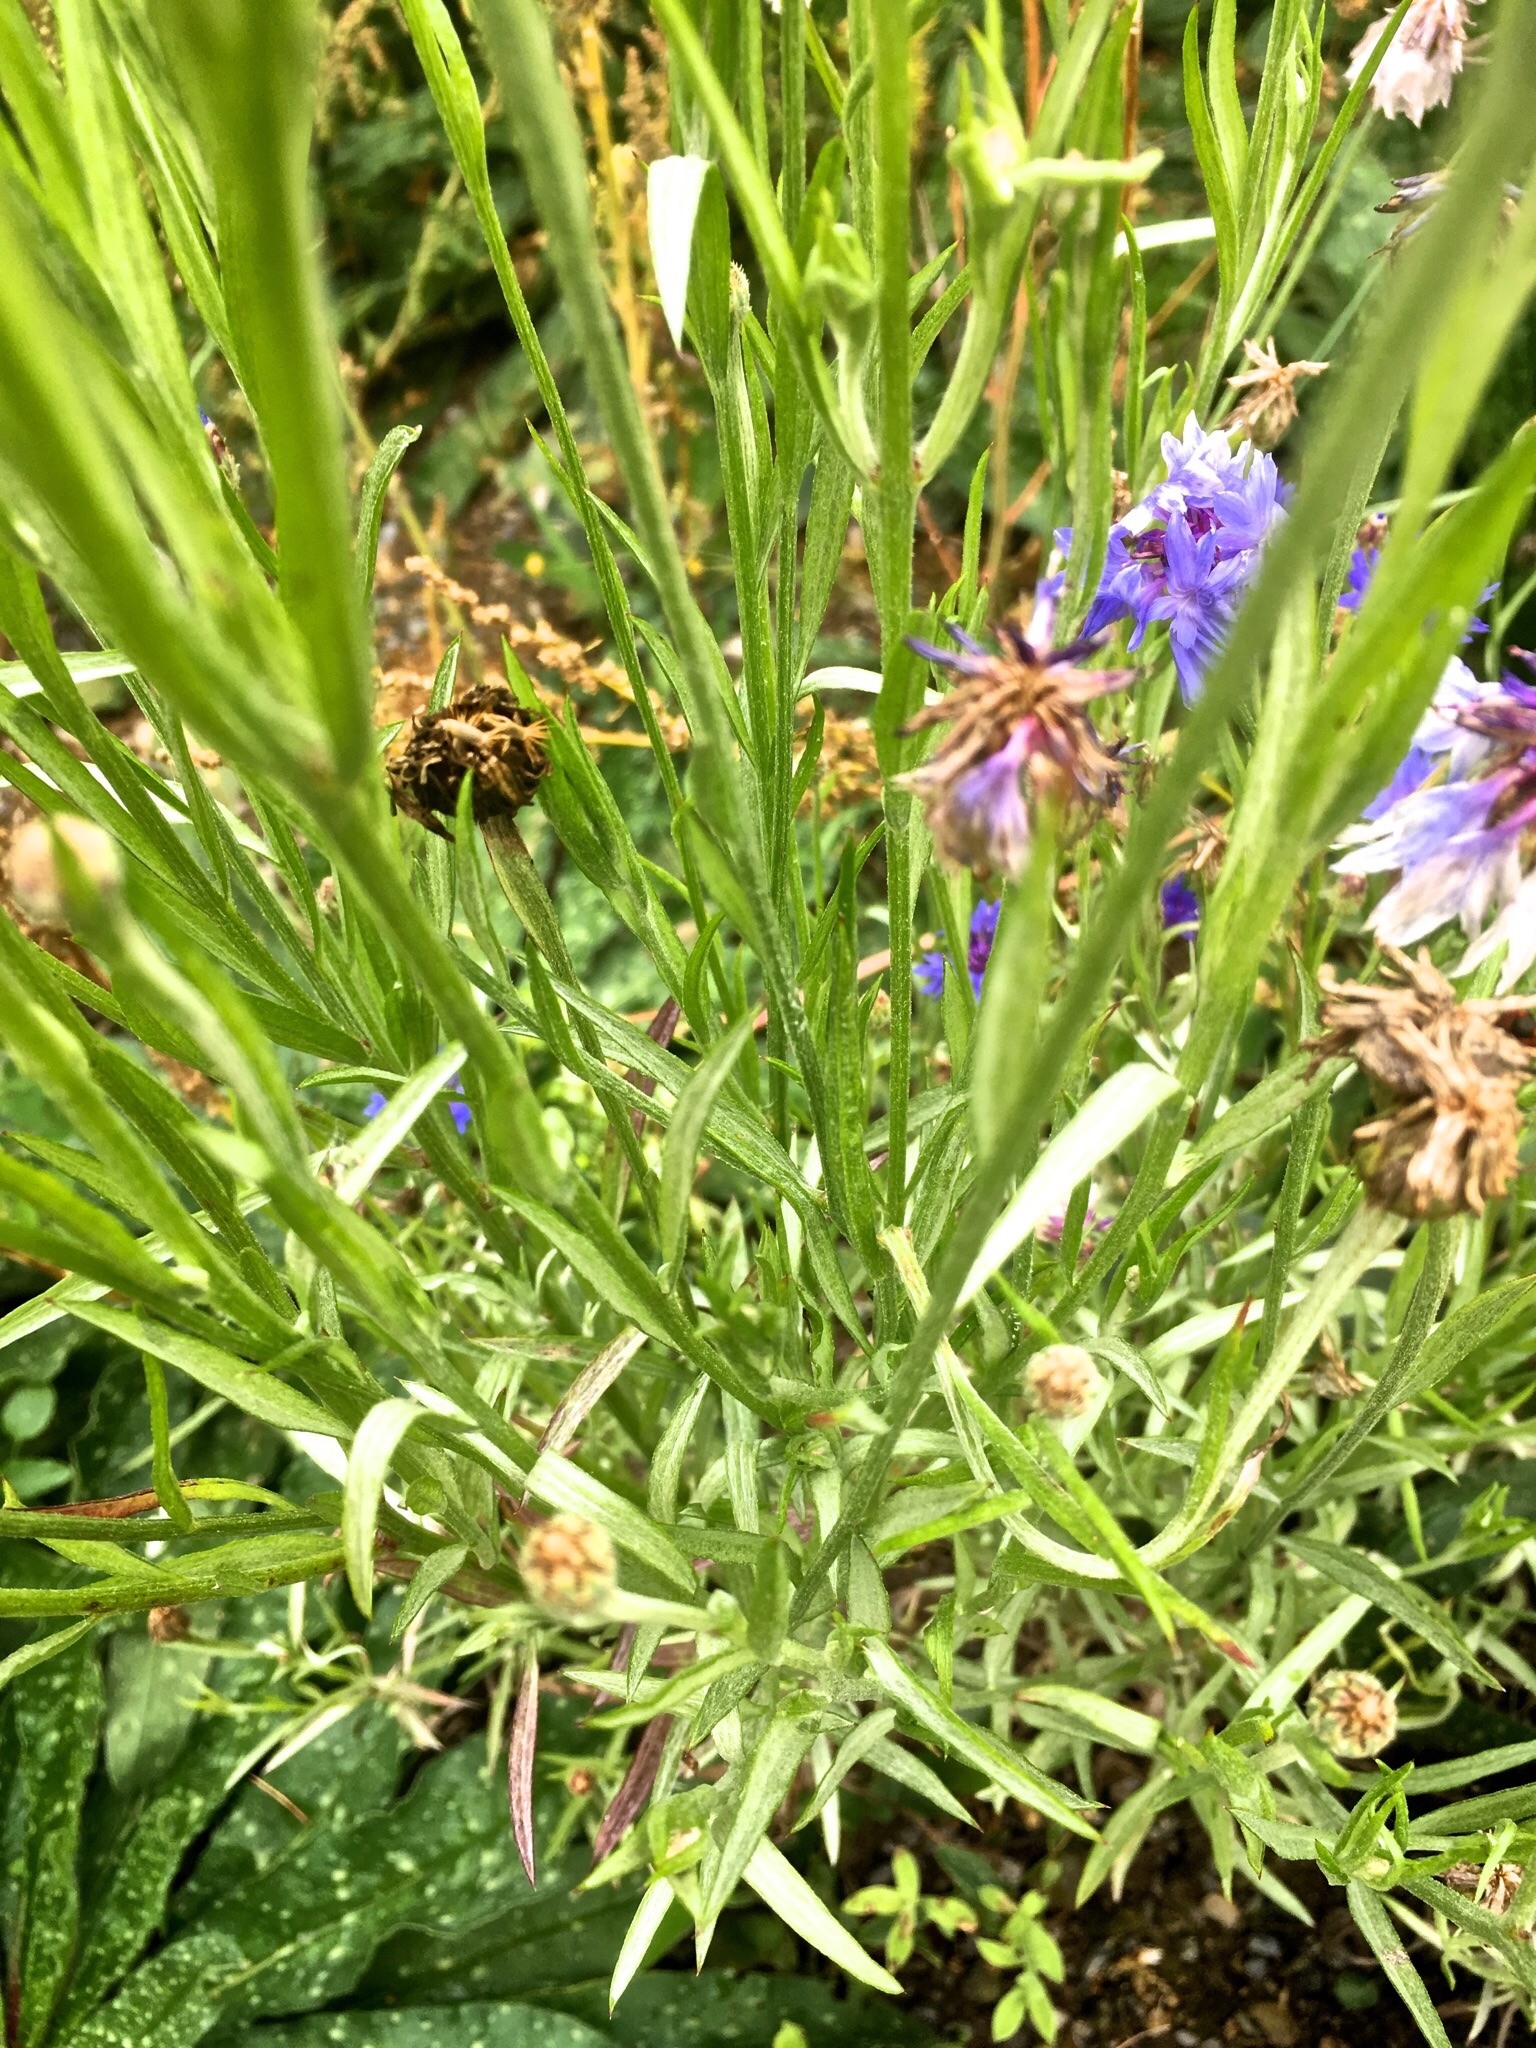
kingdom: Plantae
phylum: Tracheophyta
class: Magnoliopsida
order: Asterales
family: Asteraceae
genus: Centaurea
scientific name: Centaurea cyanus
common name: Cornflower
